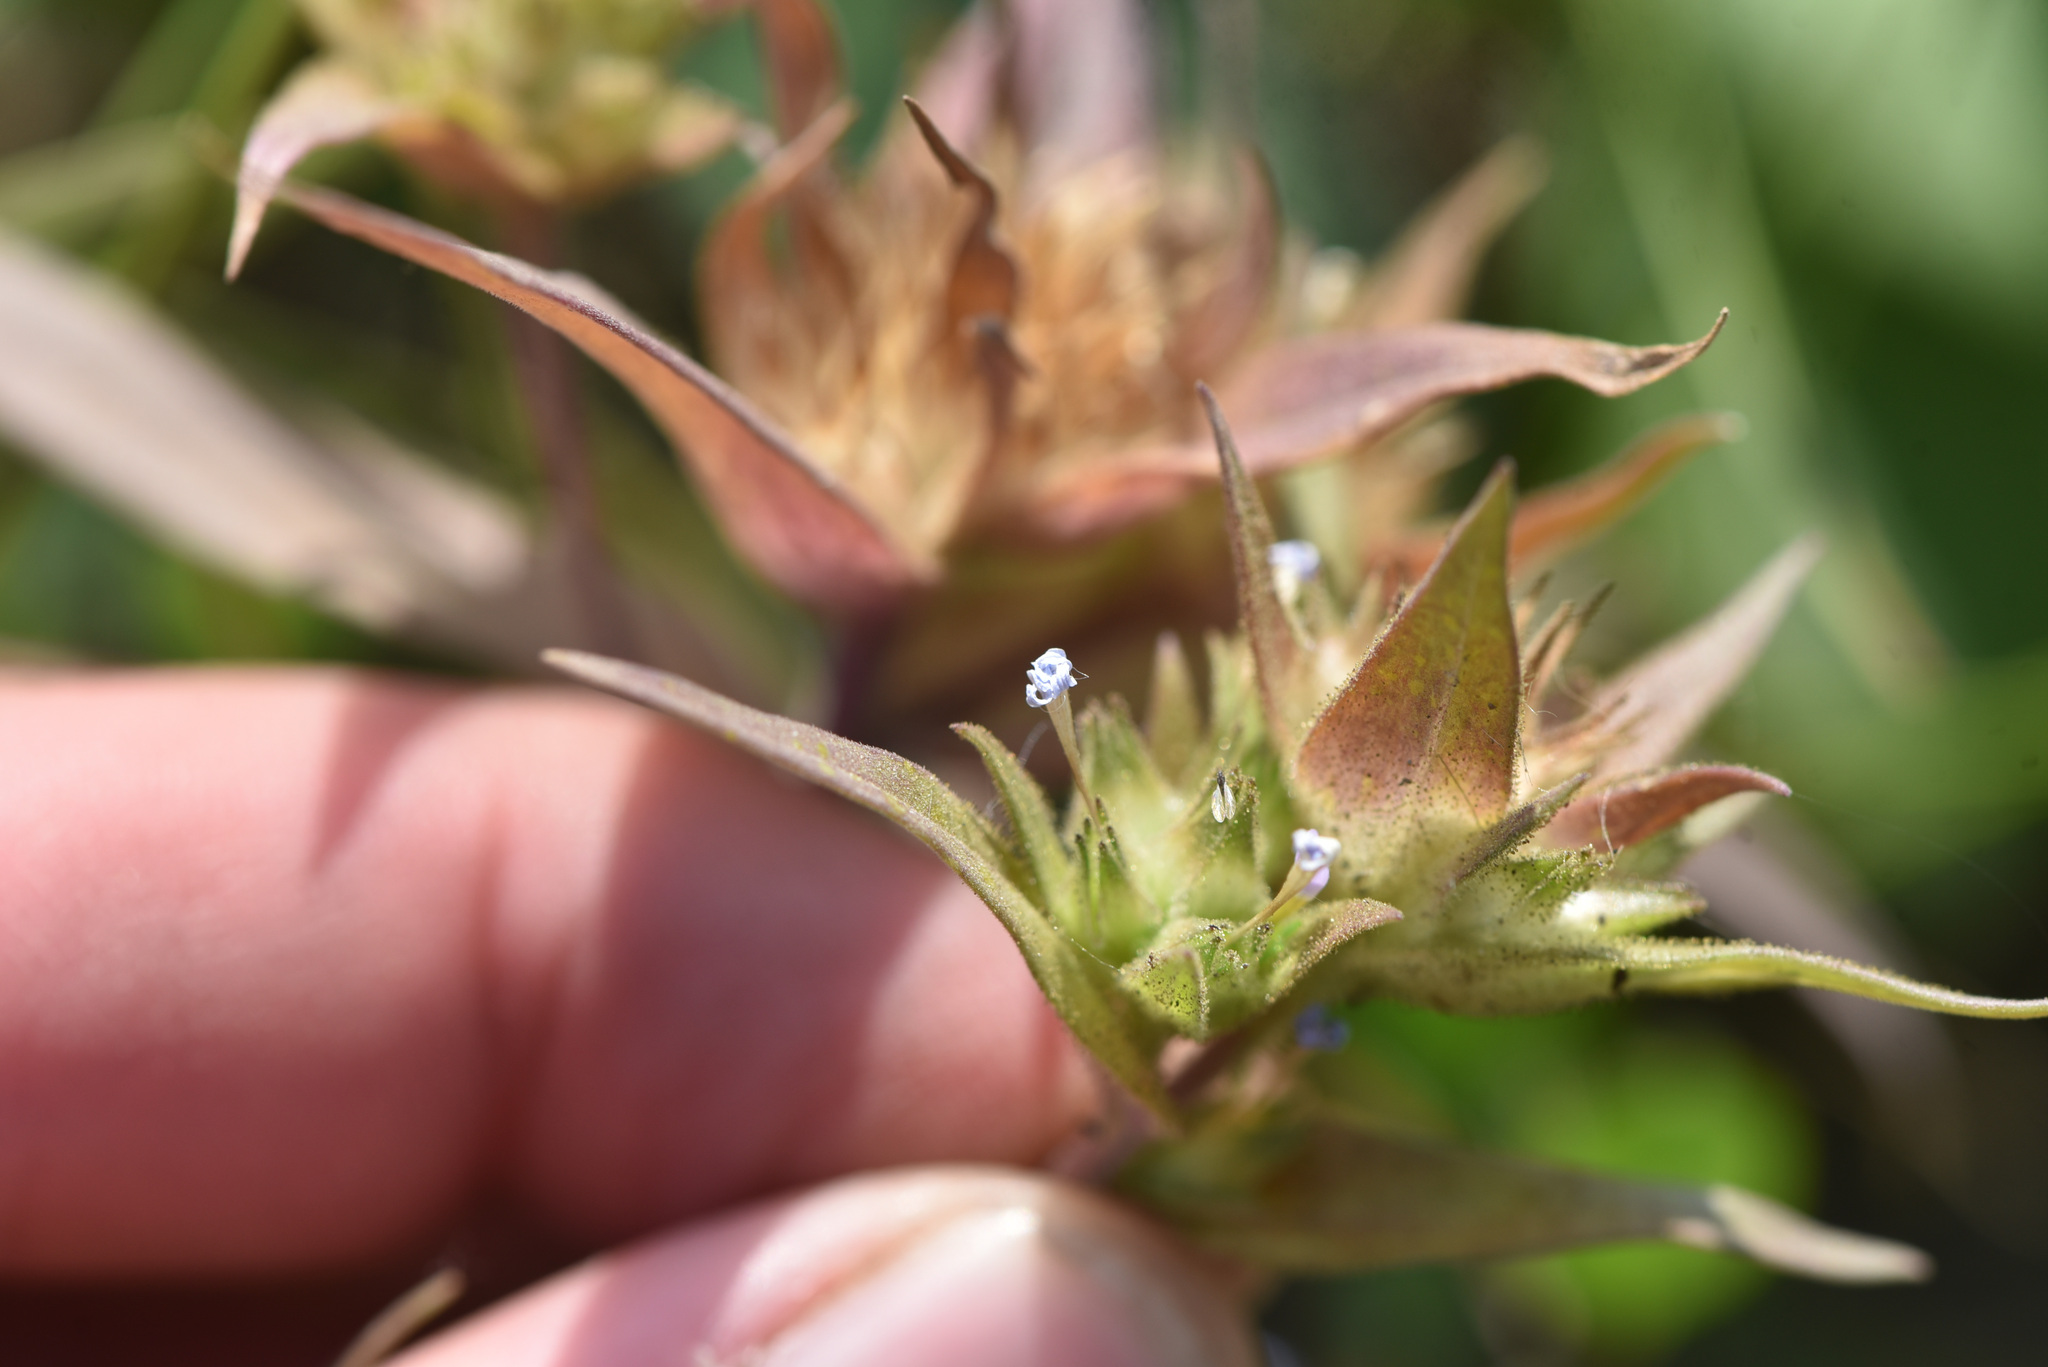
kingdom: Plantae
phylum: Tracheophyta
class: Magnoliopsida
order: Ericales
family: Polemoniaceae
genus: Collomia
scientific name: Collomia linearis
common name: Tiny trumpet
